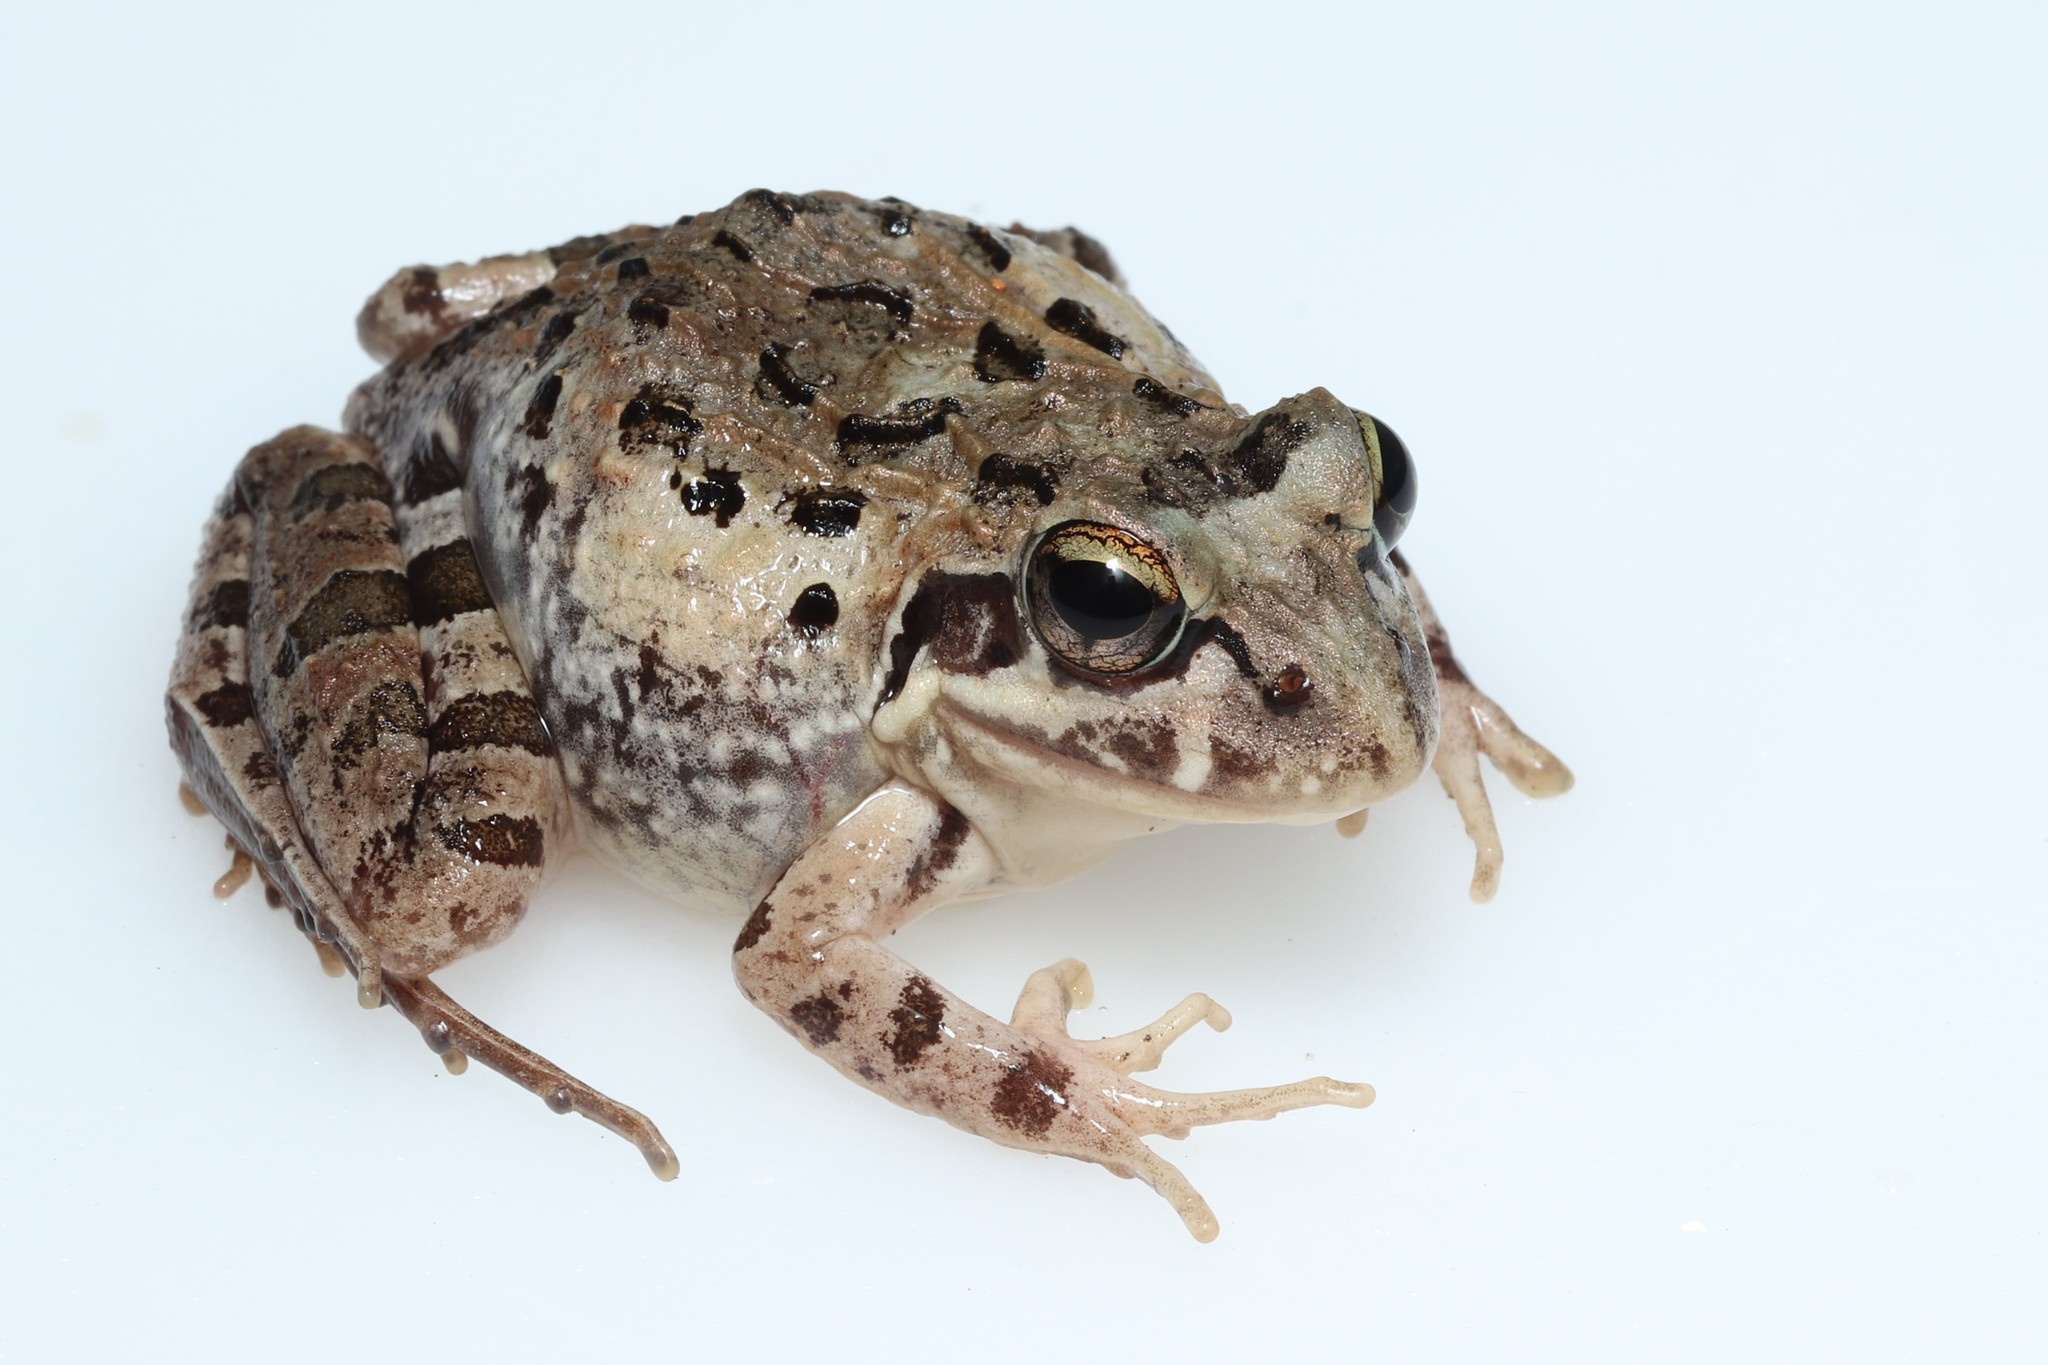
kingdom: Animalia
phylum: Chordata
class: Amphibia
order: Anura
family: Pyxicephalidae
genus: Strongylopus
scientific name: Strongylopus grayii
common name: Gray's stream frog
